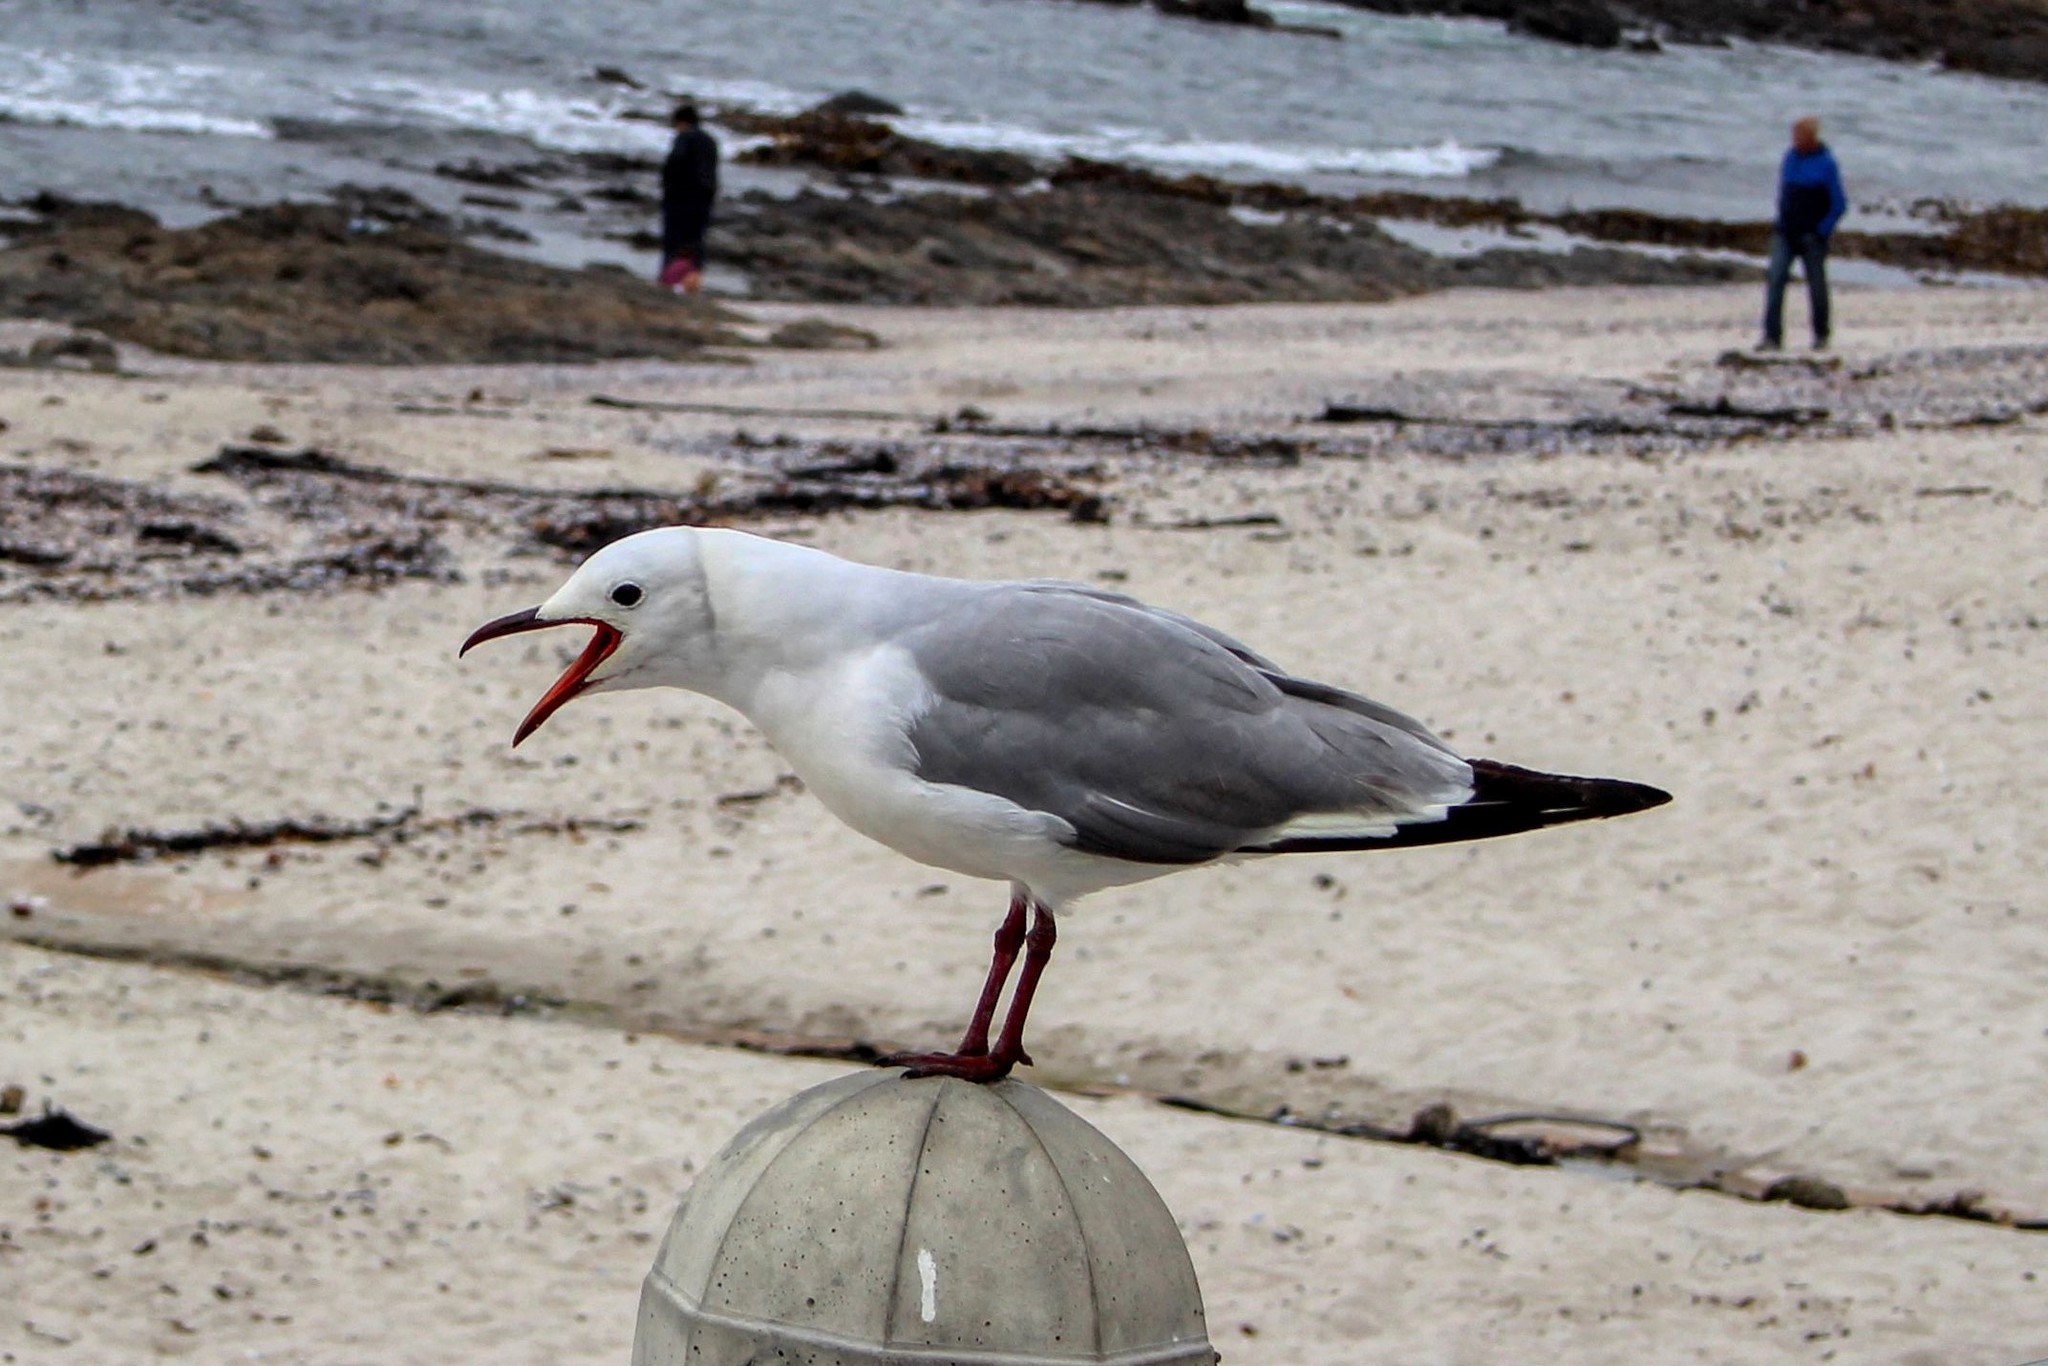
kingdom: Animalia
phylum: Chordata
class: Aves
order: Charadriiformes
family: Laridae
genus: Chroicocephalus
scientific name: Chroicocephalus hartlaubii
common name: Hartlaub's gull
